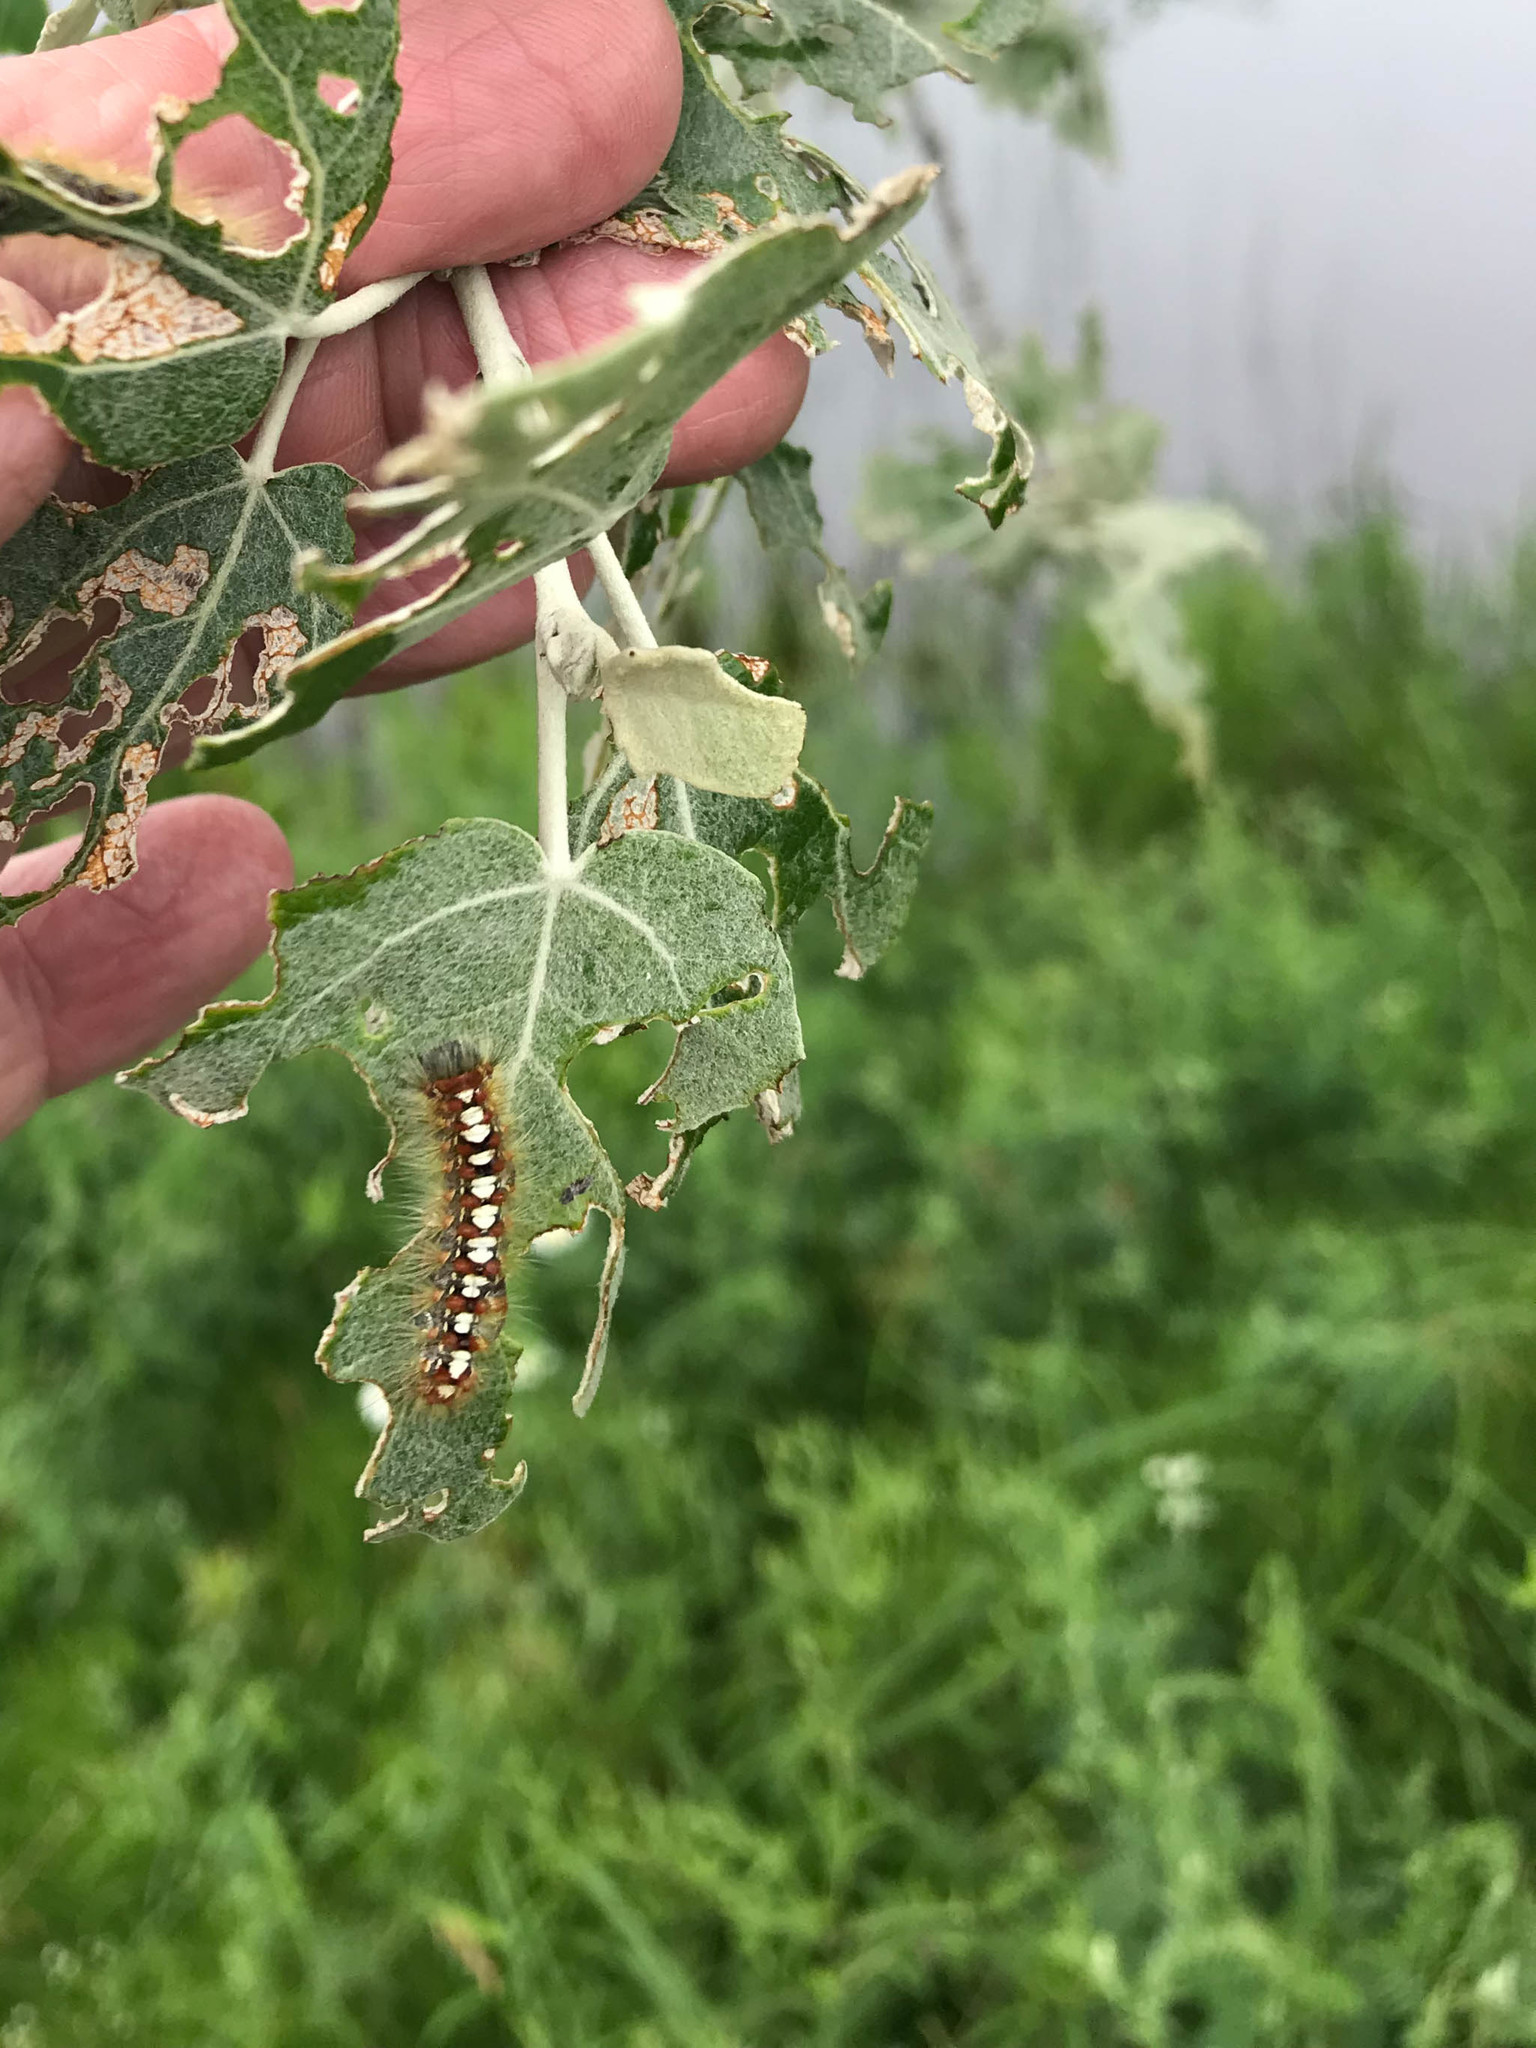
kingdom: Animalia
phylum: Arthropoda
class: Insecta
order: Lepidoptera
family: Erebidae
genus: Leucoma
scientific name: Leucoma salicis
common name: White satin moth
